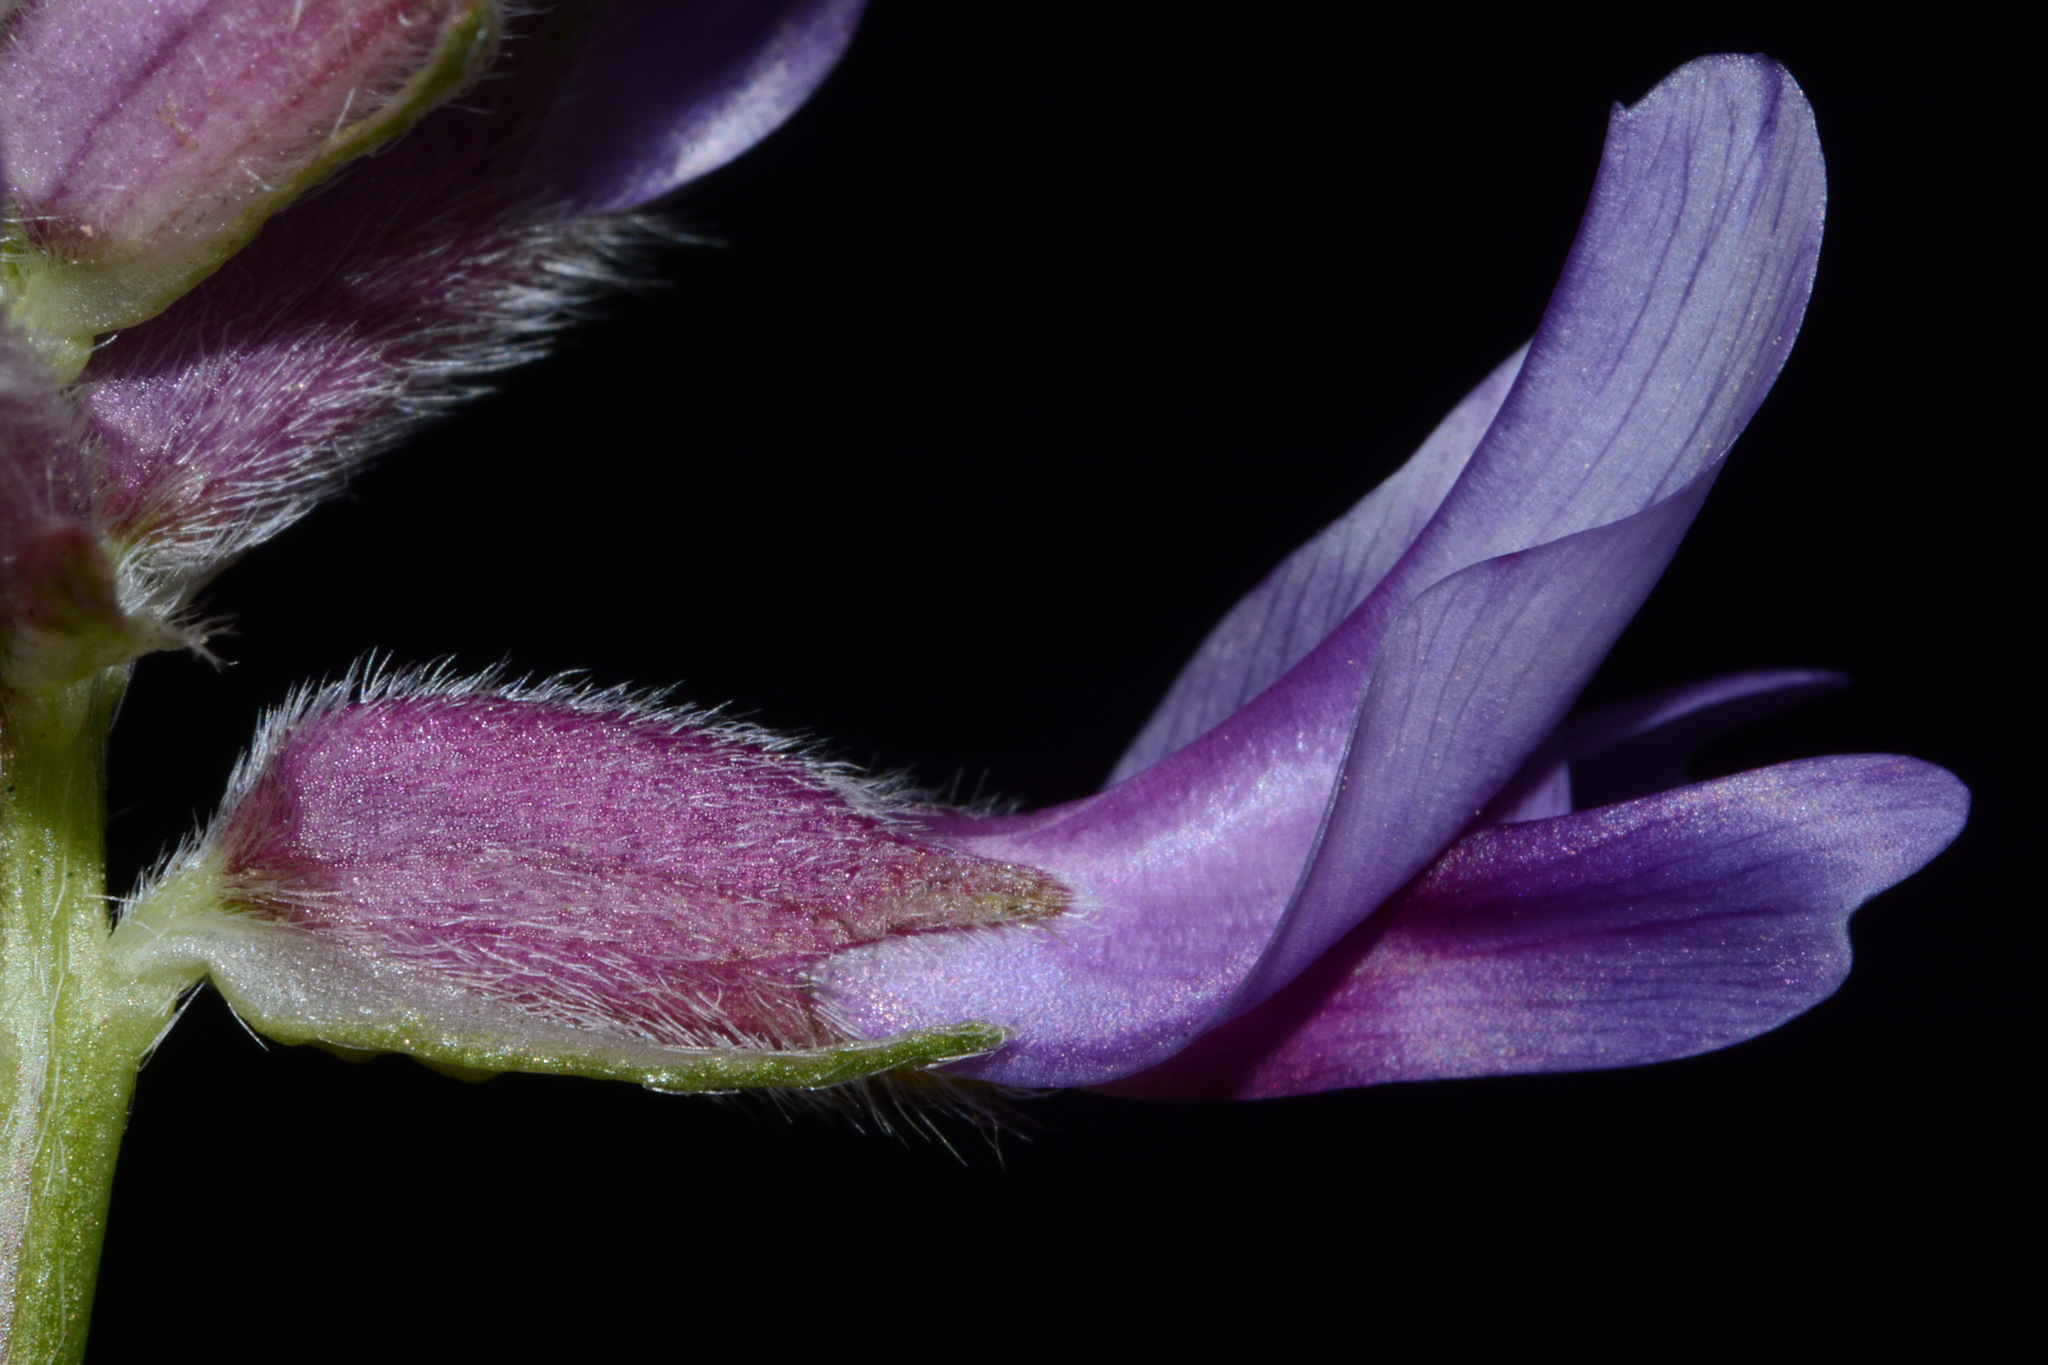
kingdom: Plantae
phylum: Tracheophyta
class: Magnoliopsida
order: Fabales
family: Fabaceae
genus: Astragalus
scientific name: Astragalus bibullatus
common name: Pyne's ground-plum
